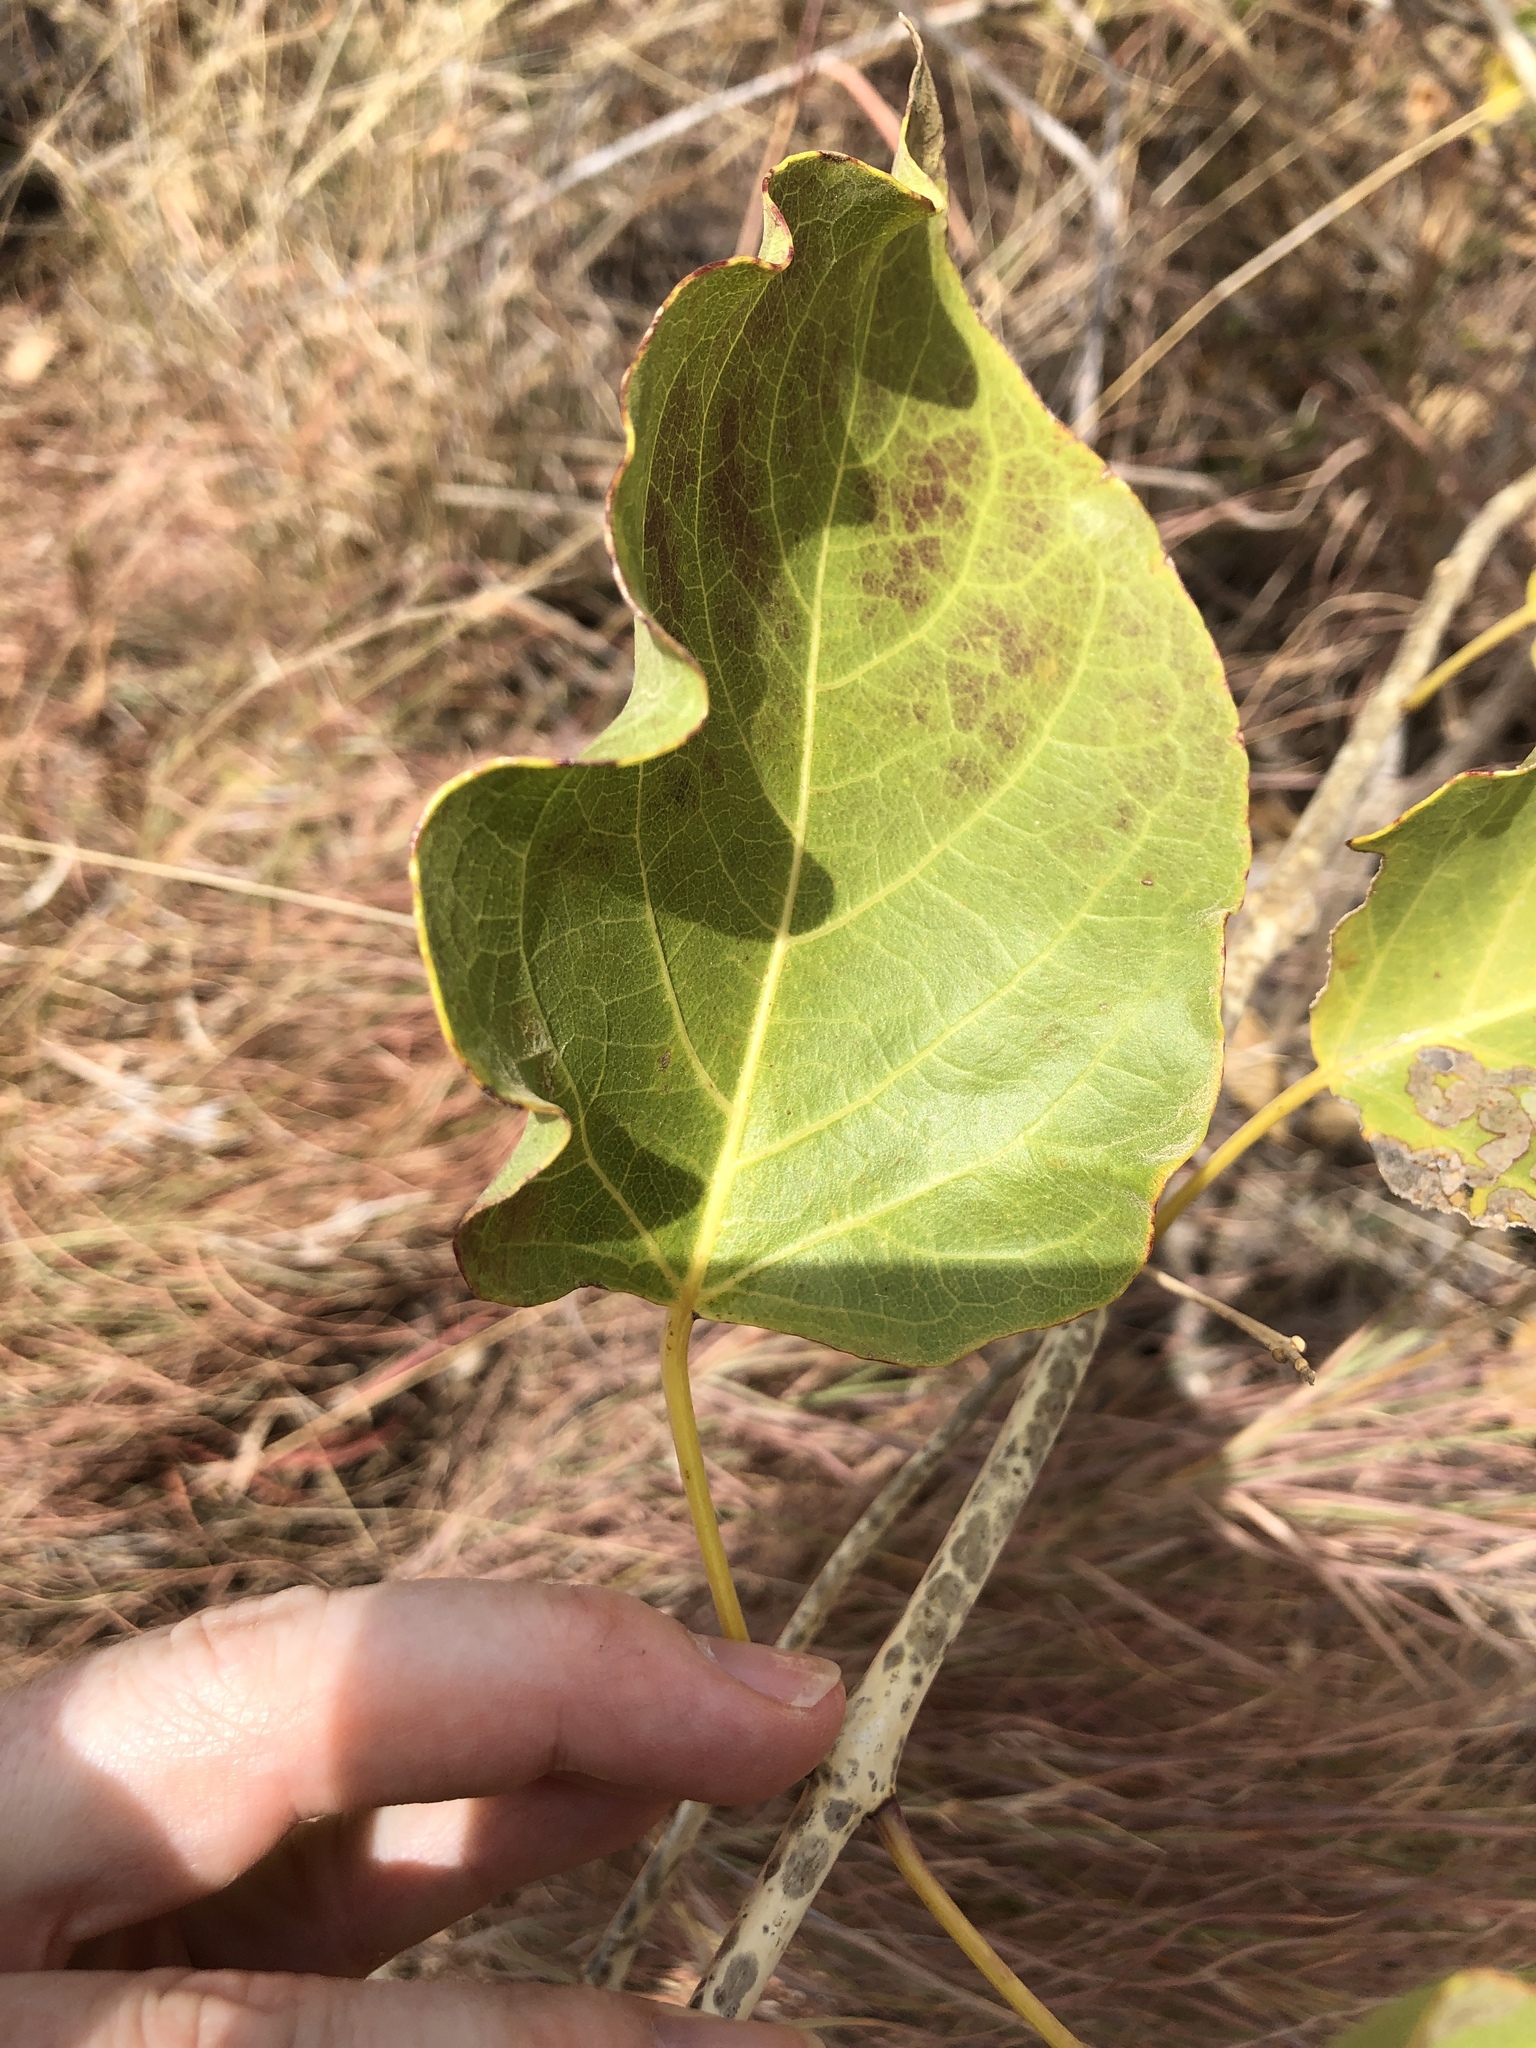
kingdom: Plantae
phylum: Tracheophyta
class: Magnoliopsida
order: Lamiales
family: Lamiaceae
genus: Clerodendrum
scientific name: Clerodendrum floribundum
